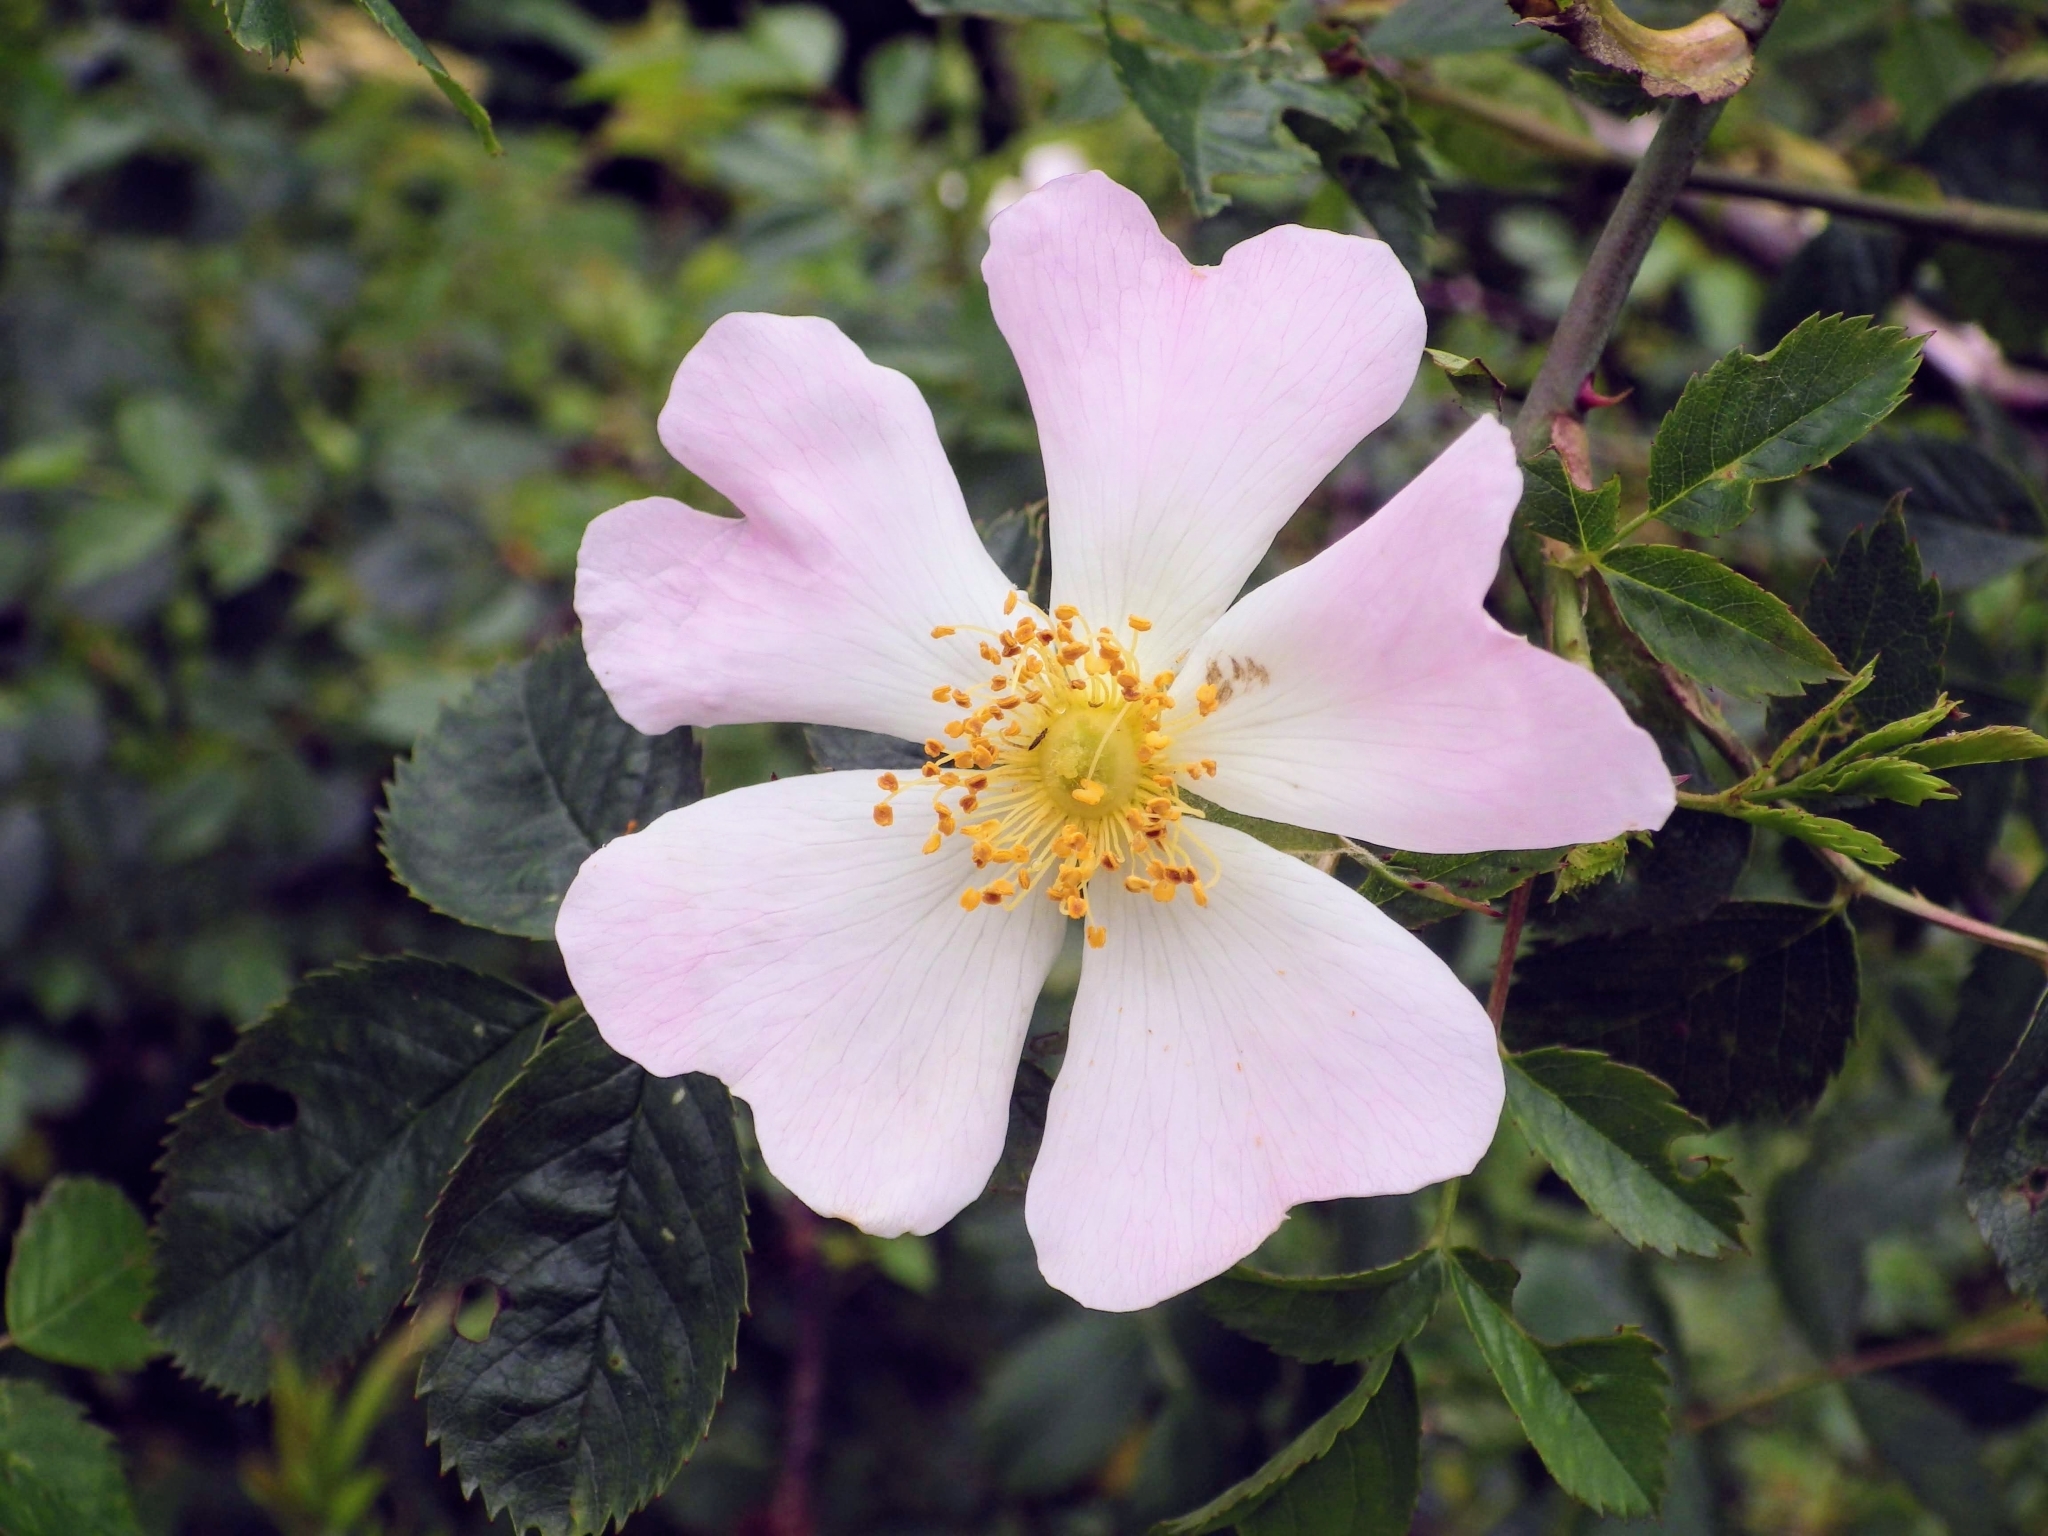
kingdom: Plantae
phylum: Tracheophyta
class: Magnoliopsida
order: Rosales
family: Rosaceae
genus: Rosa
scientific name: Rosa canina
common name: Dog rose
